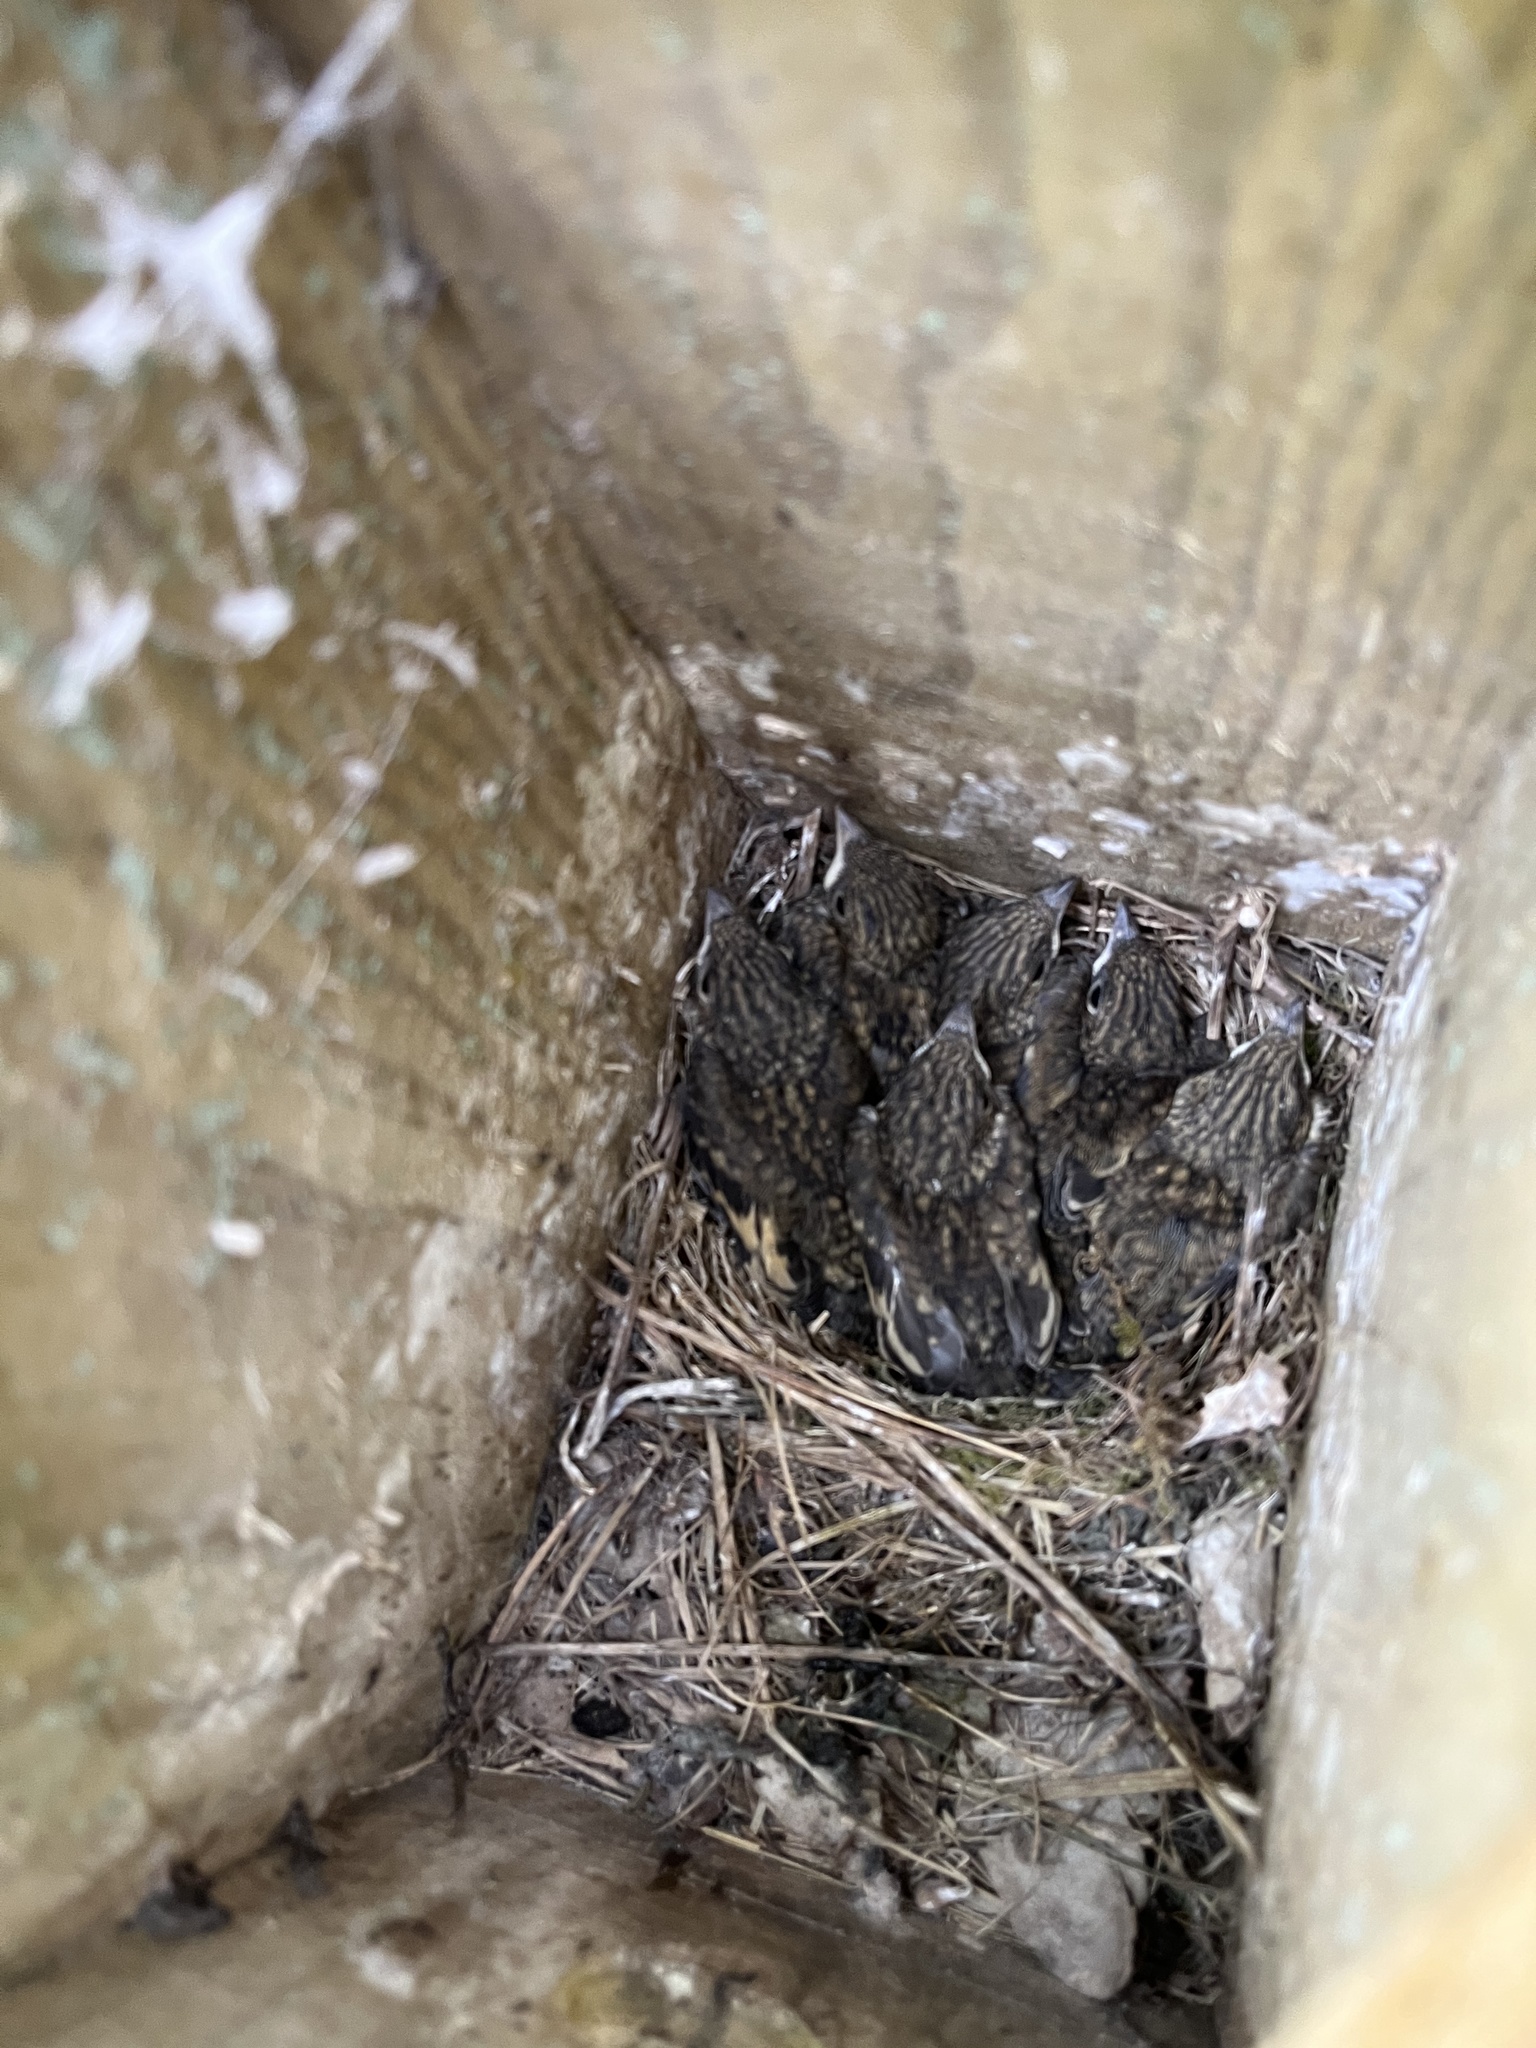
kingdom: Animalia
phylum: Chordata
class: Aves
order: Passeriformes
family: Muscicapidae
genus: Ficedula
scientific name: Ficedula hypoleuca
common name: European pied flycatcher
